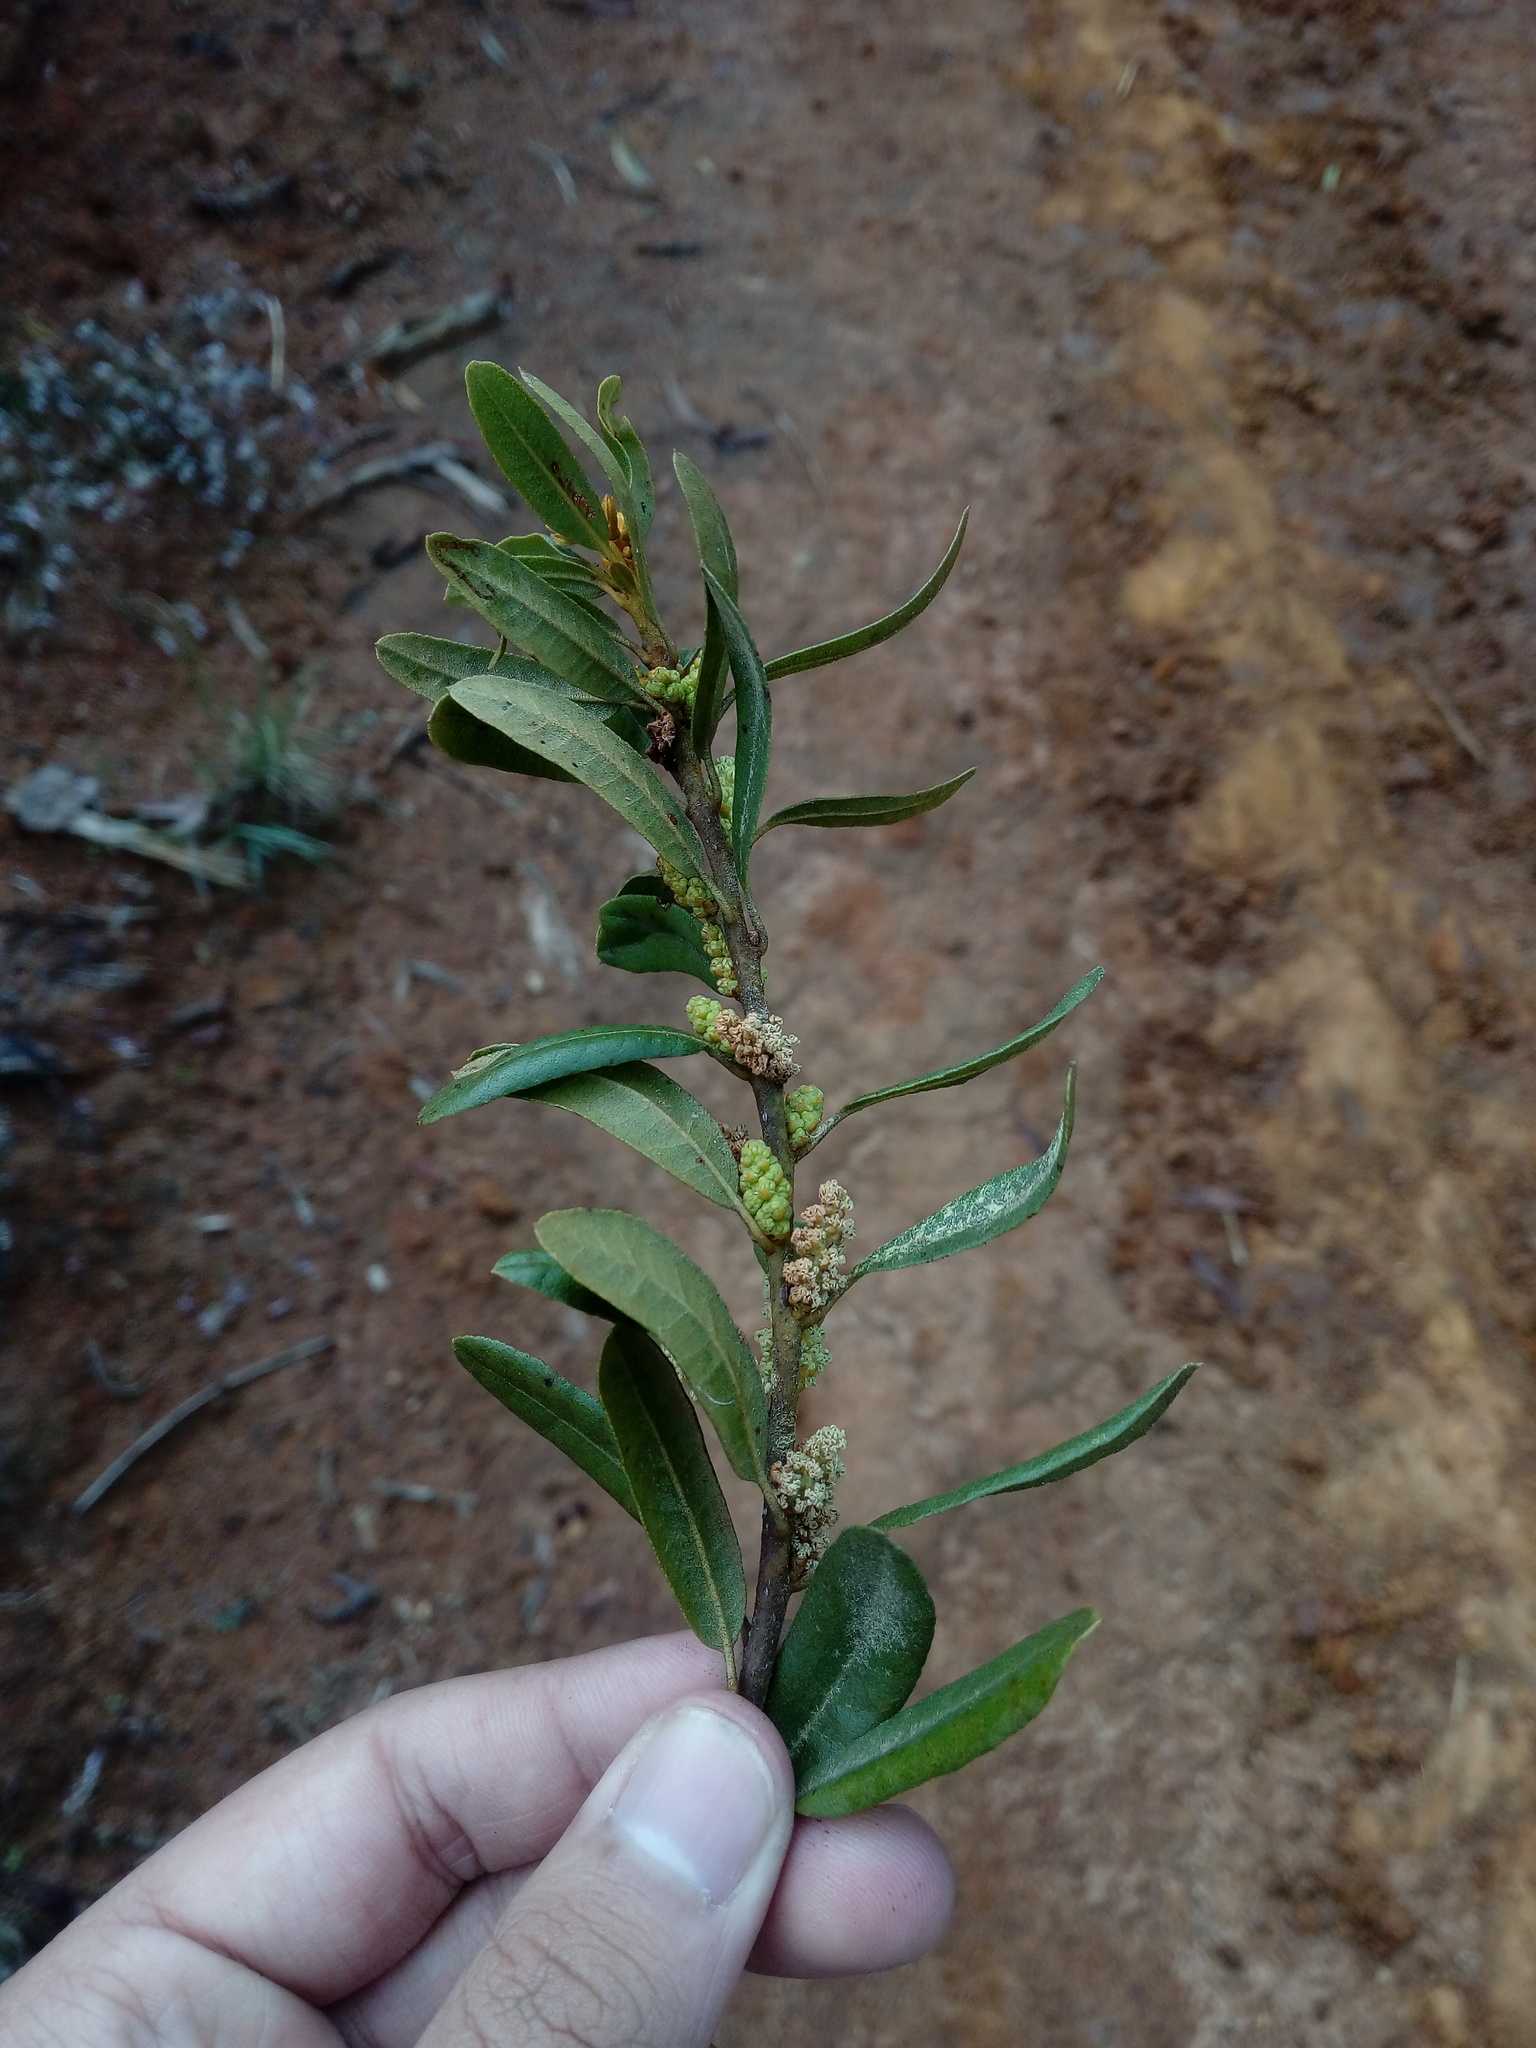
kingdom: Plantae
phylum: Tracheophyta
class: Magnoliopsida
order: Fagales
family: Myricaceae
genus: Morella
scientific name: Morella funckii
